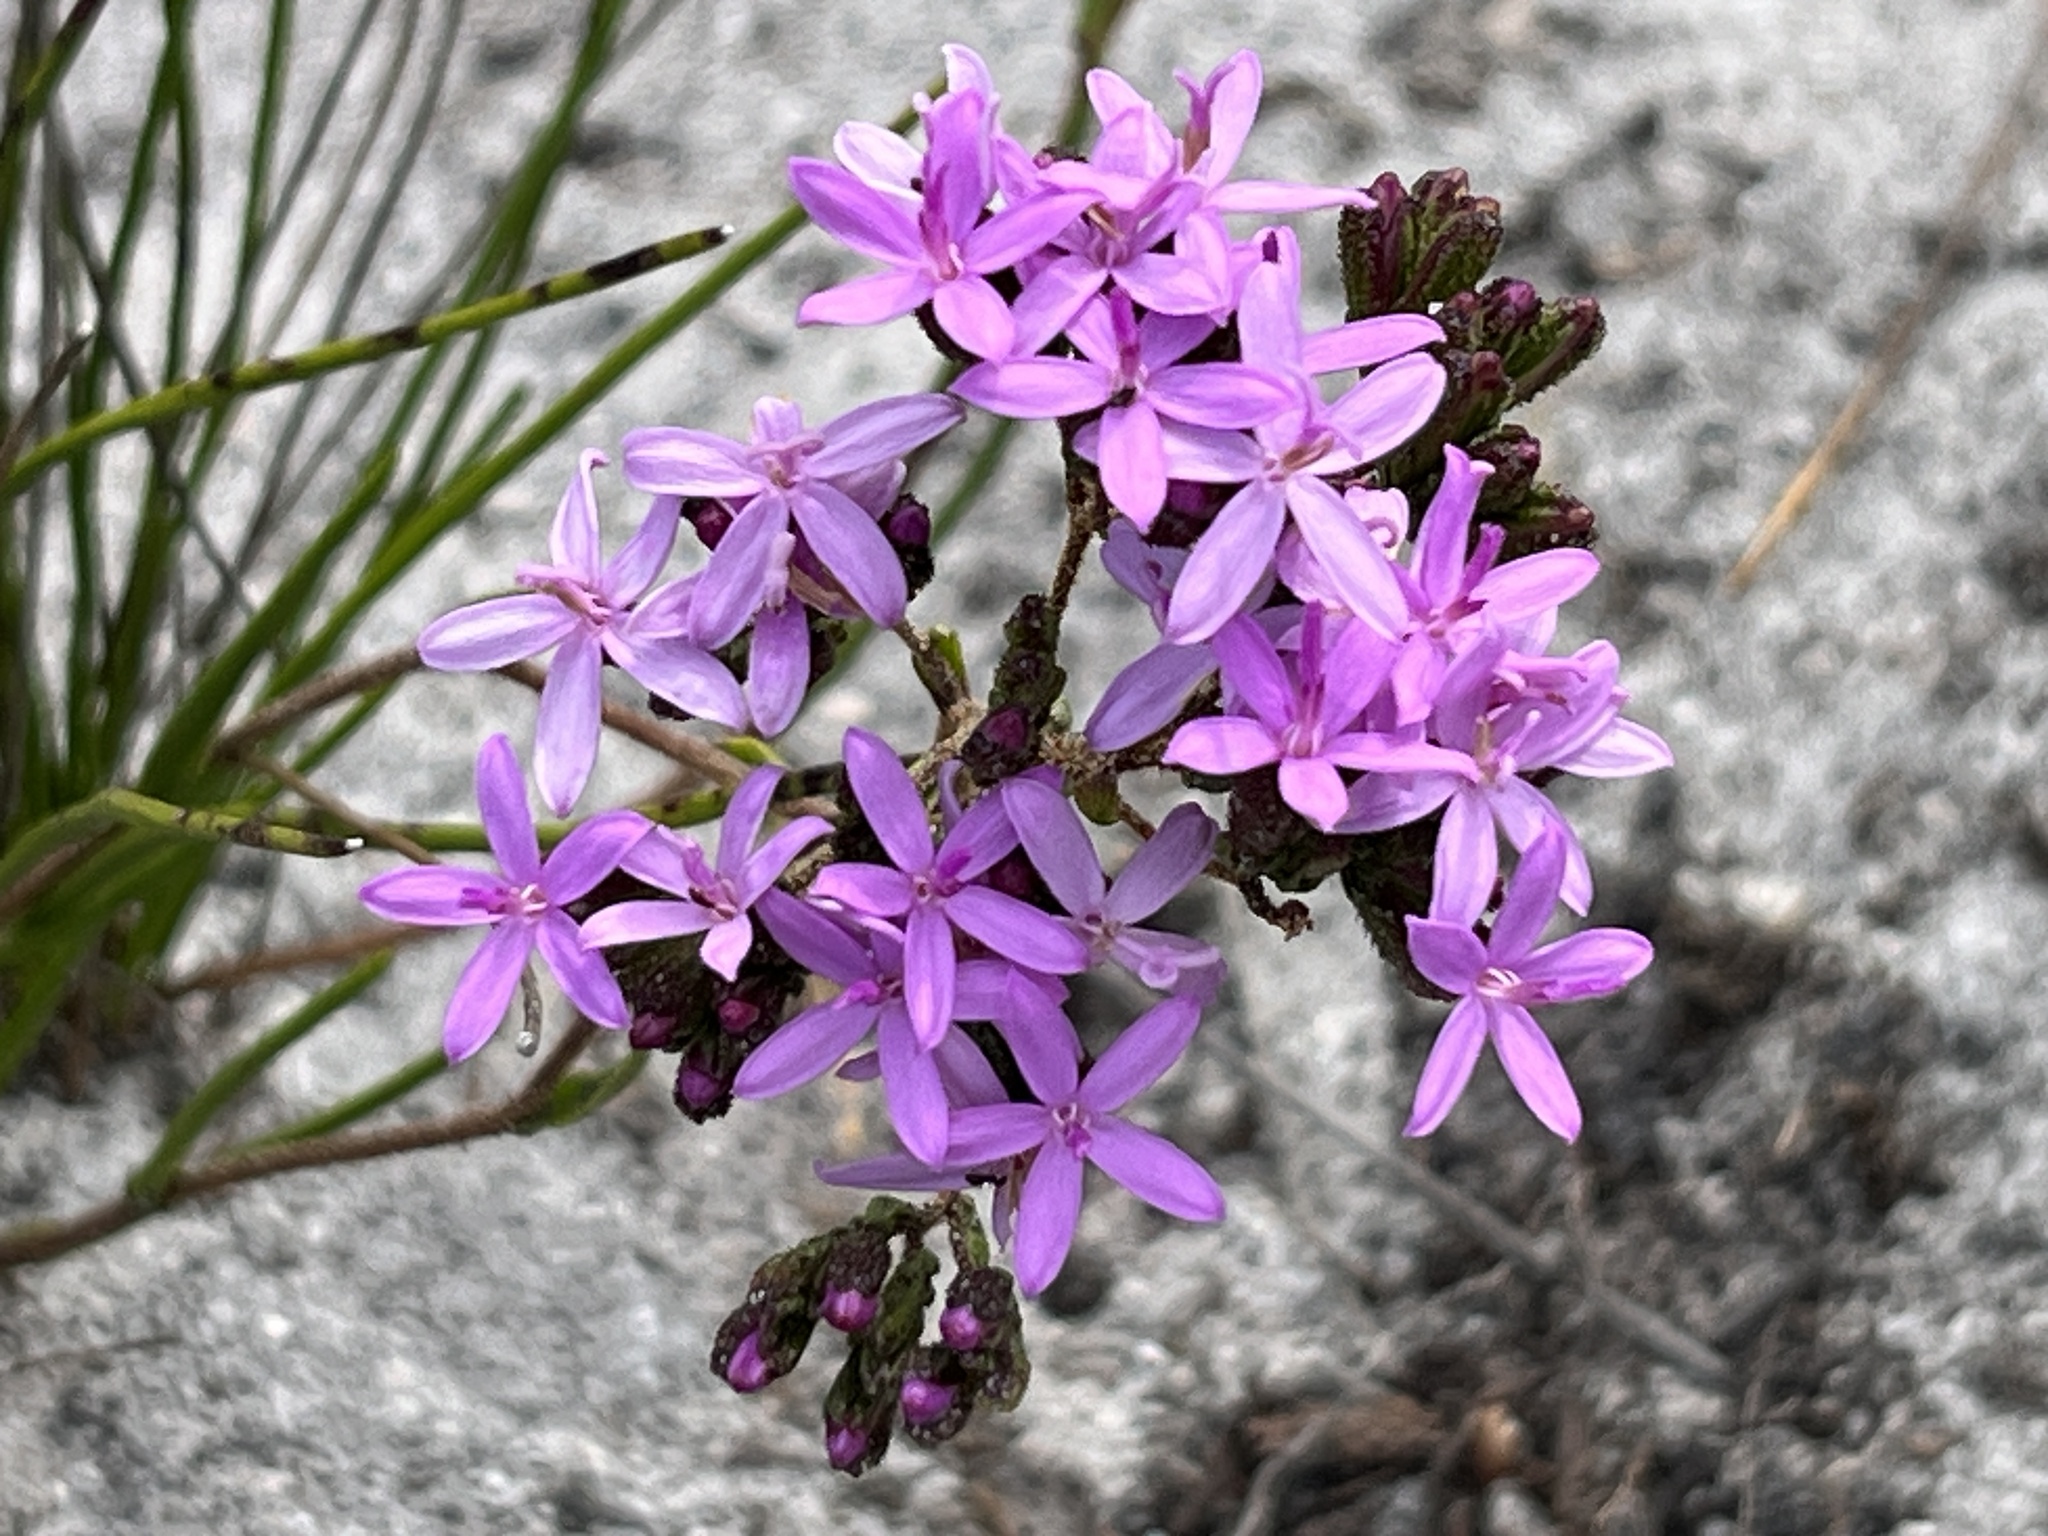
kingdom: Plantae
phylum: Tracheophyta
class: Magnoliopsida
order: Asterales
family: Asteraceae
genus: Corymbium
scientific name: Corymbium africanum
